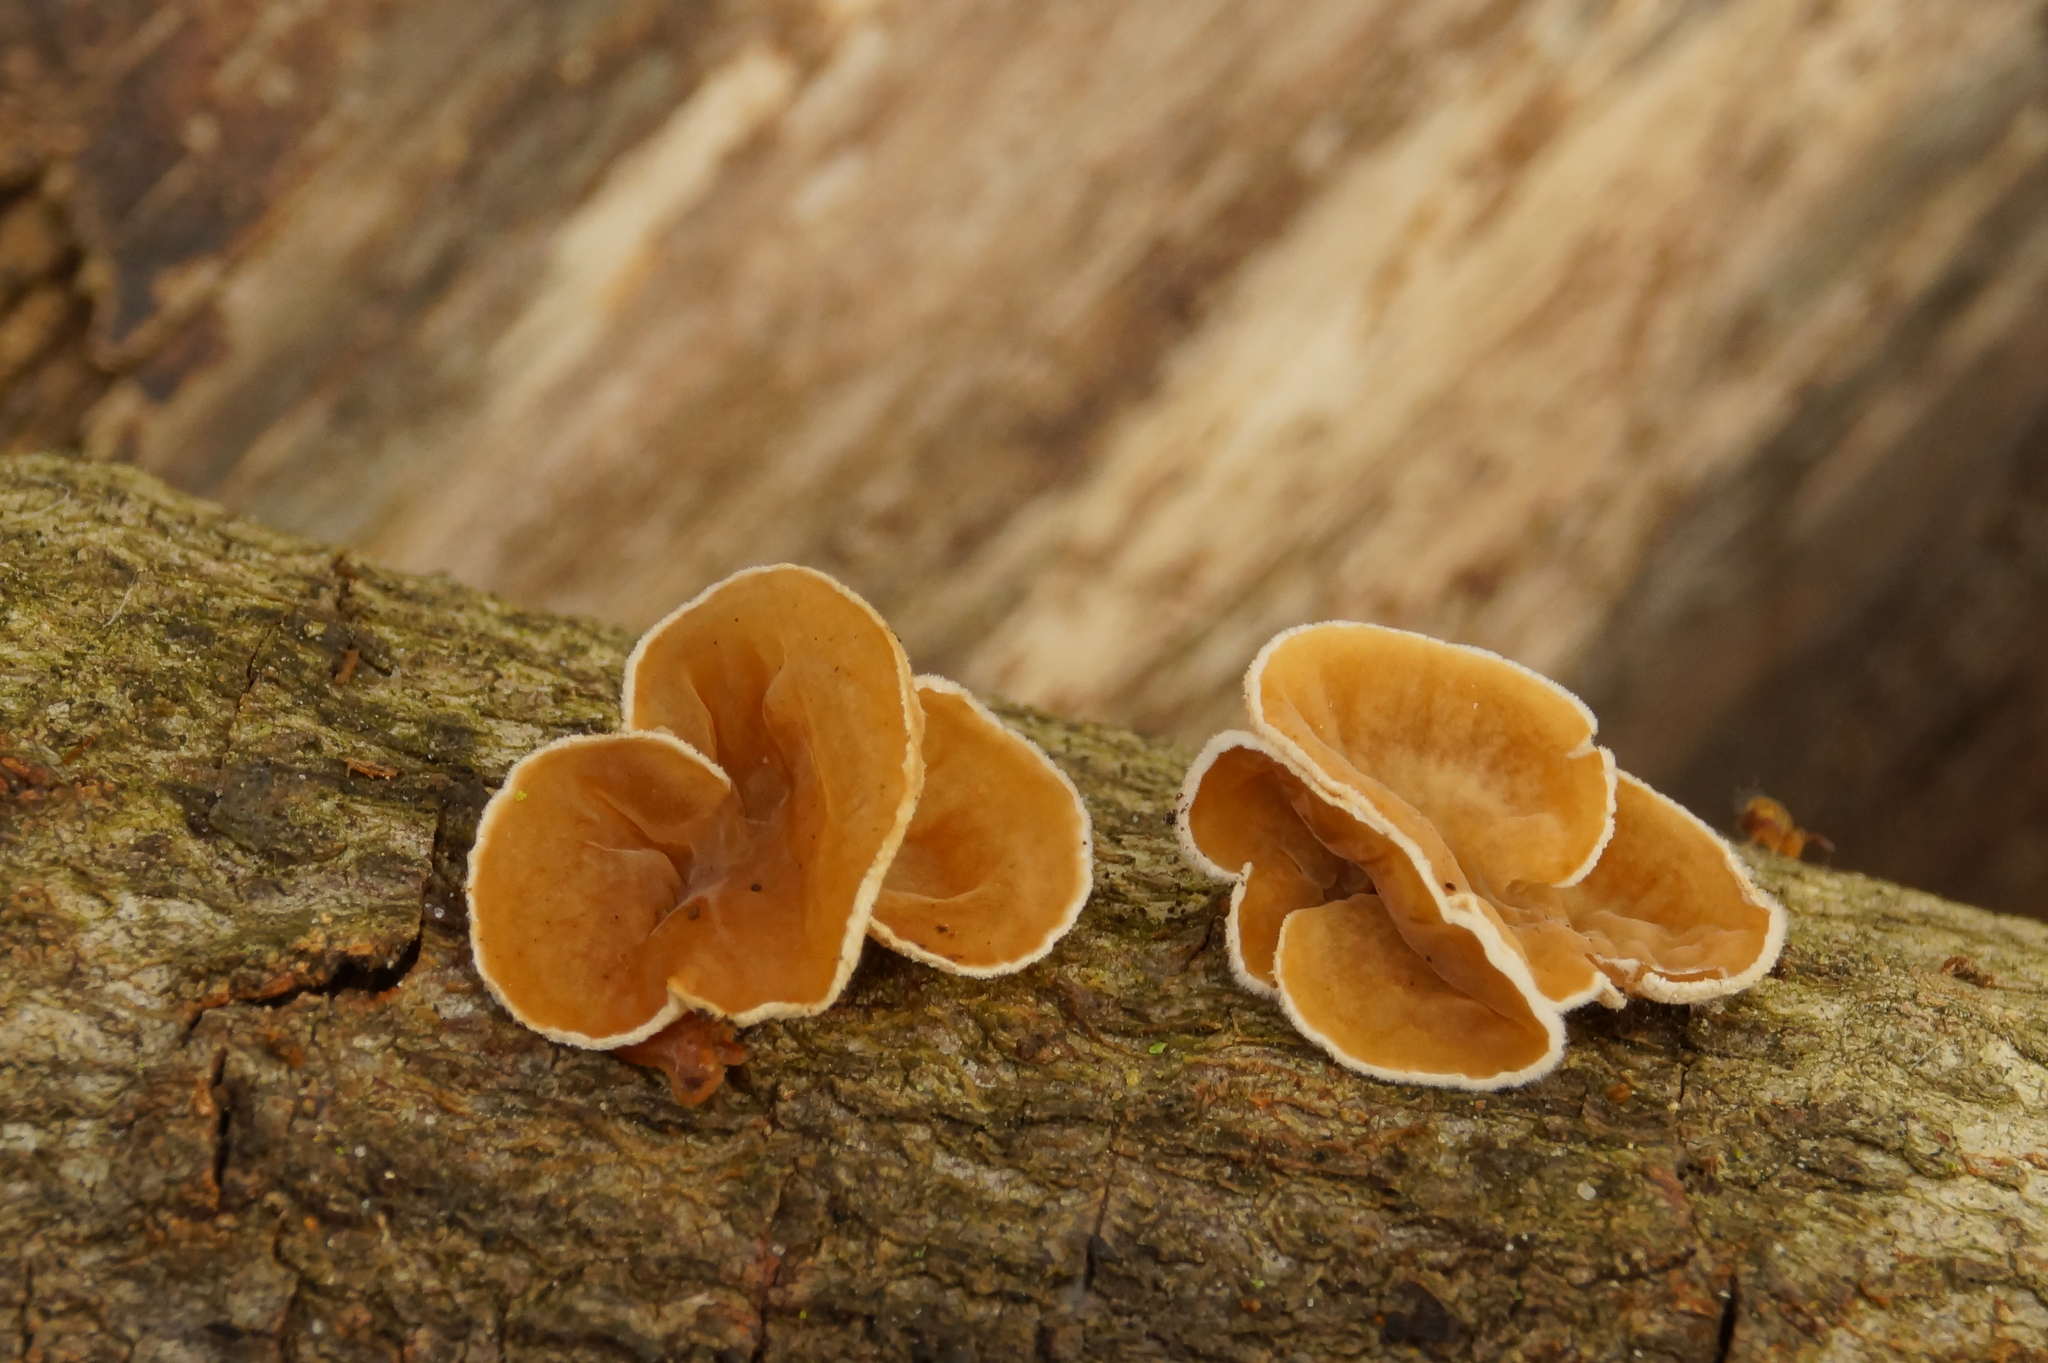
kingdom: Fungi
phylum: Basidiomycota
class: Agaricomycetes
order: Agaricales
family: Schizophyllaceae
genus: Schizophyllum
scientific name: Schizophyllum amplum
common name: Poplar bells
